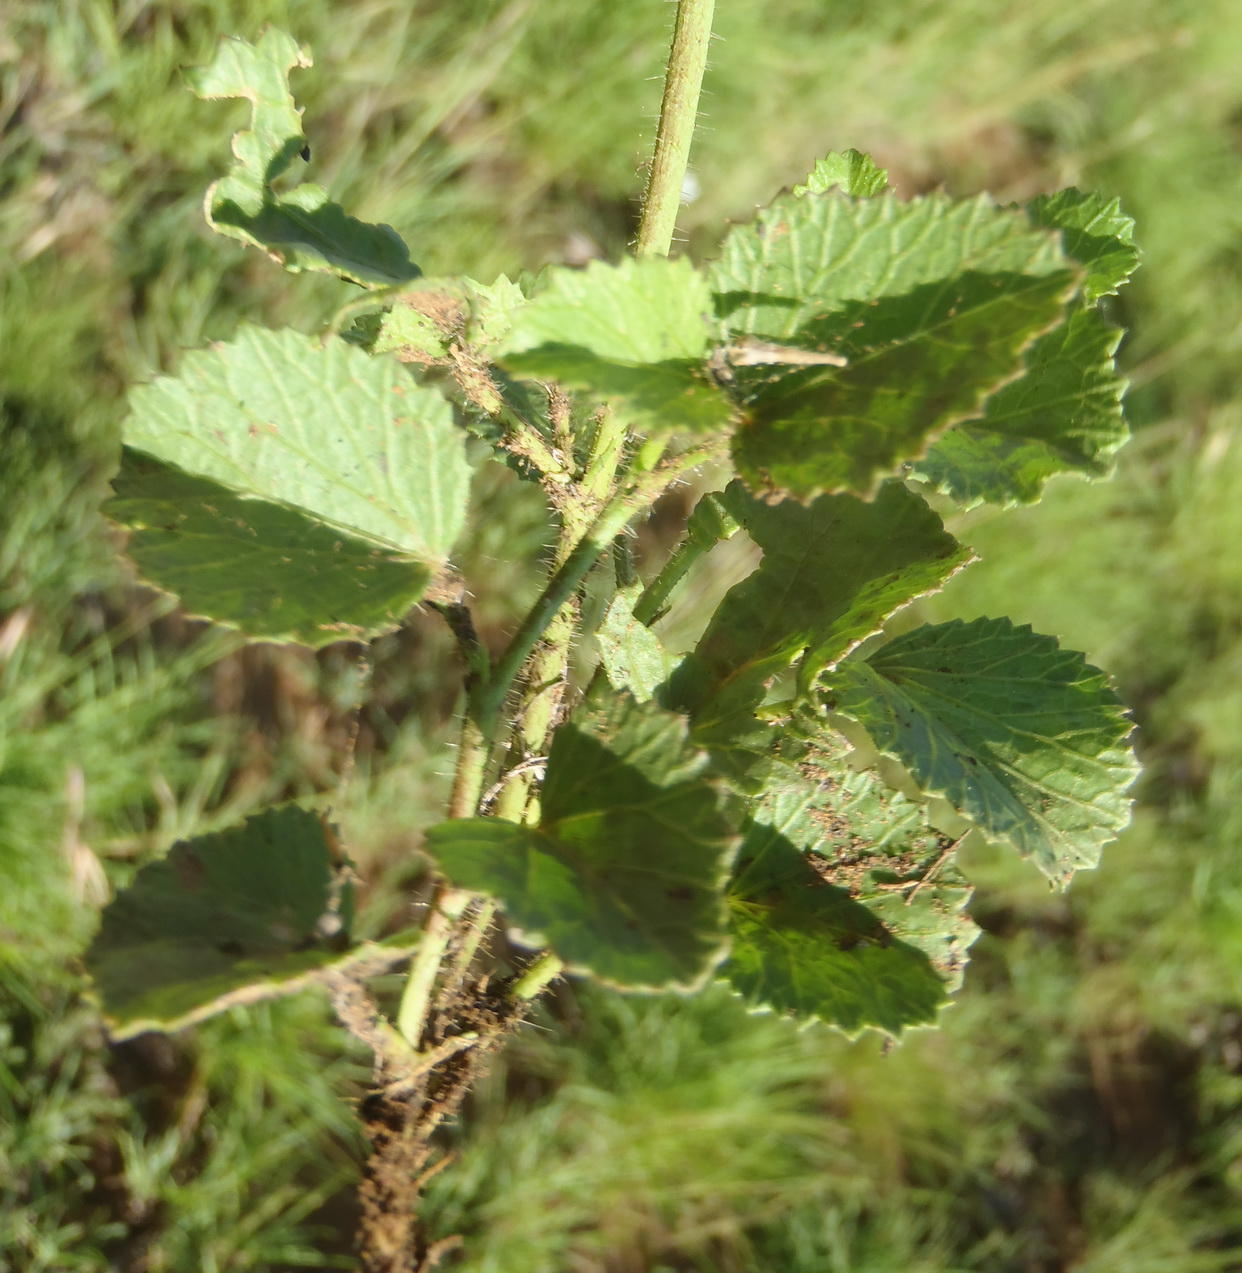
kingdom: Plantae
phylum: Tracheophyta
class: Magnoliopsida
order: Malvales
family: Malvaceae
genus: Hibiscus
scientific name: Hibiscus pusillus
